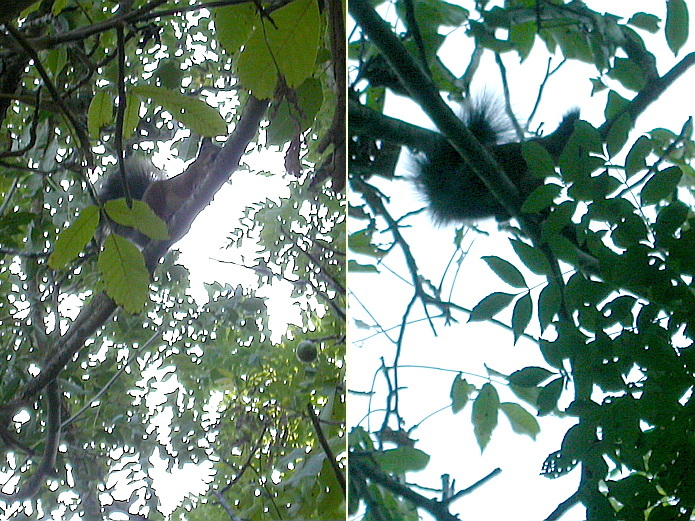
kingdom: Animalia
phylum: Chordata
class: Mammalia
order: Rodentia
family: Sciuridae
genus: Sciurus
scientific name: Sciurus vulgaris
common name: Eurasian red squirrel
